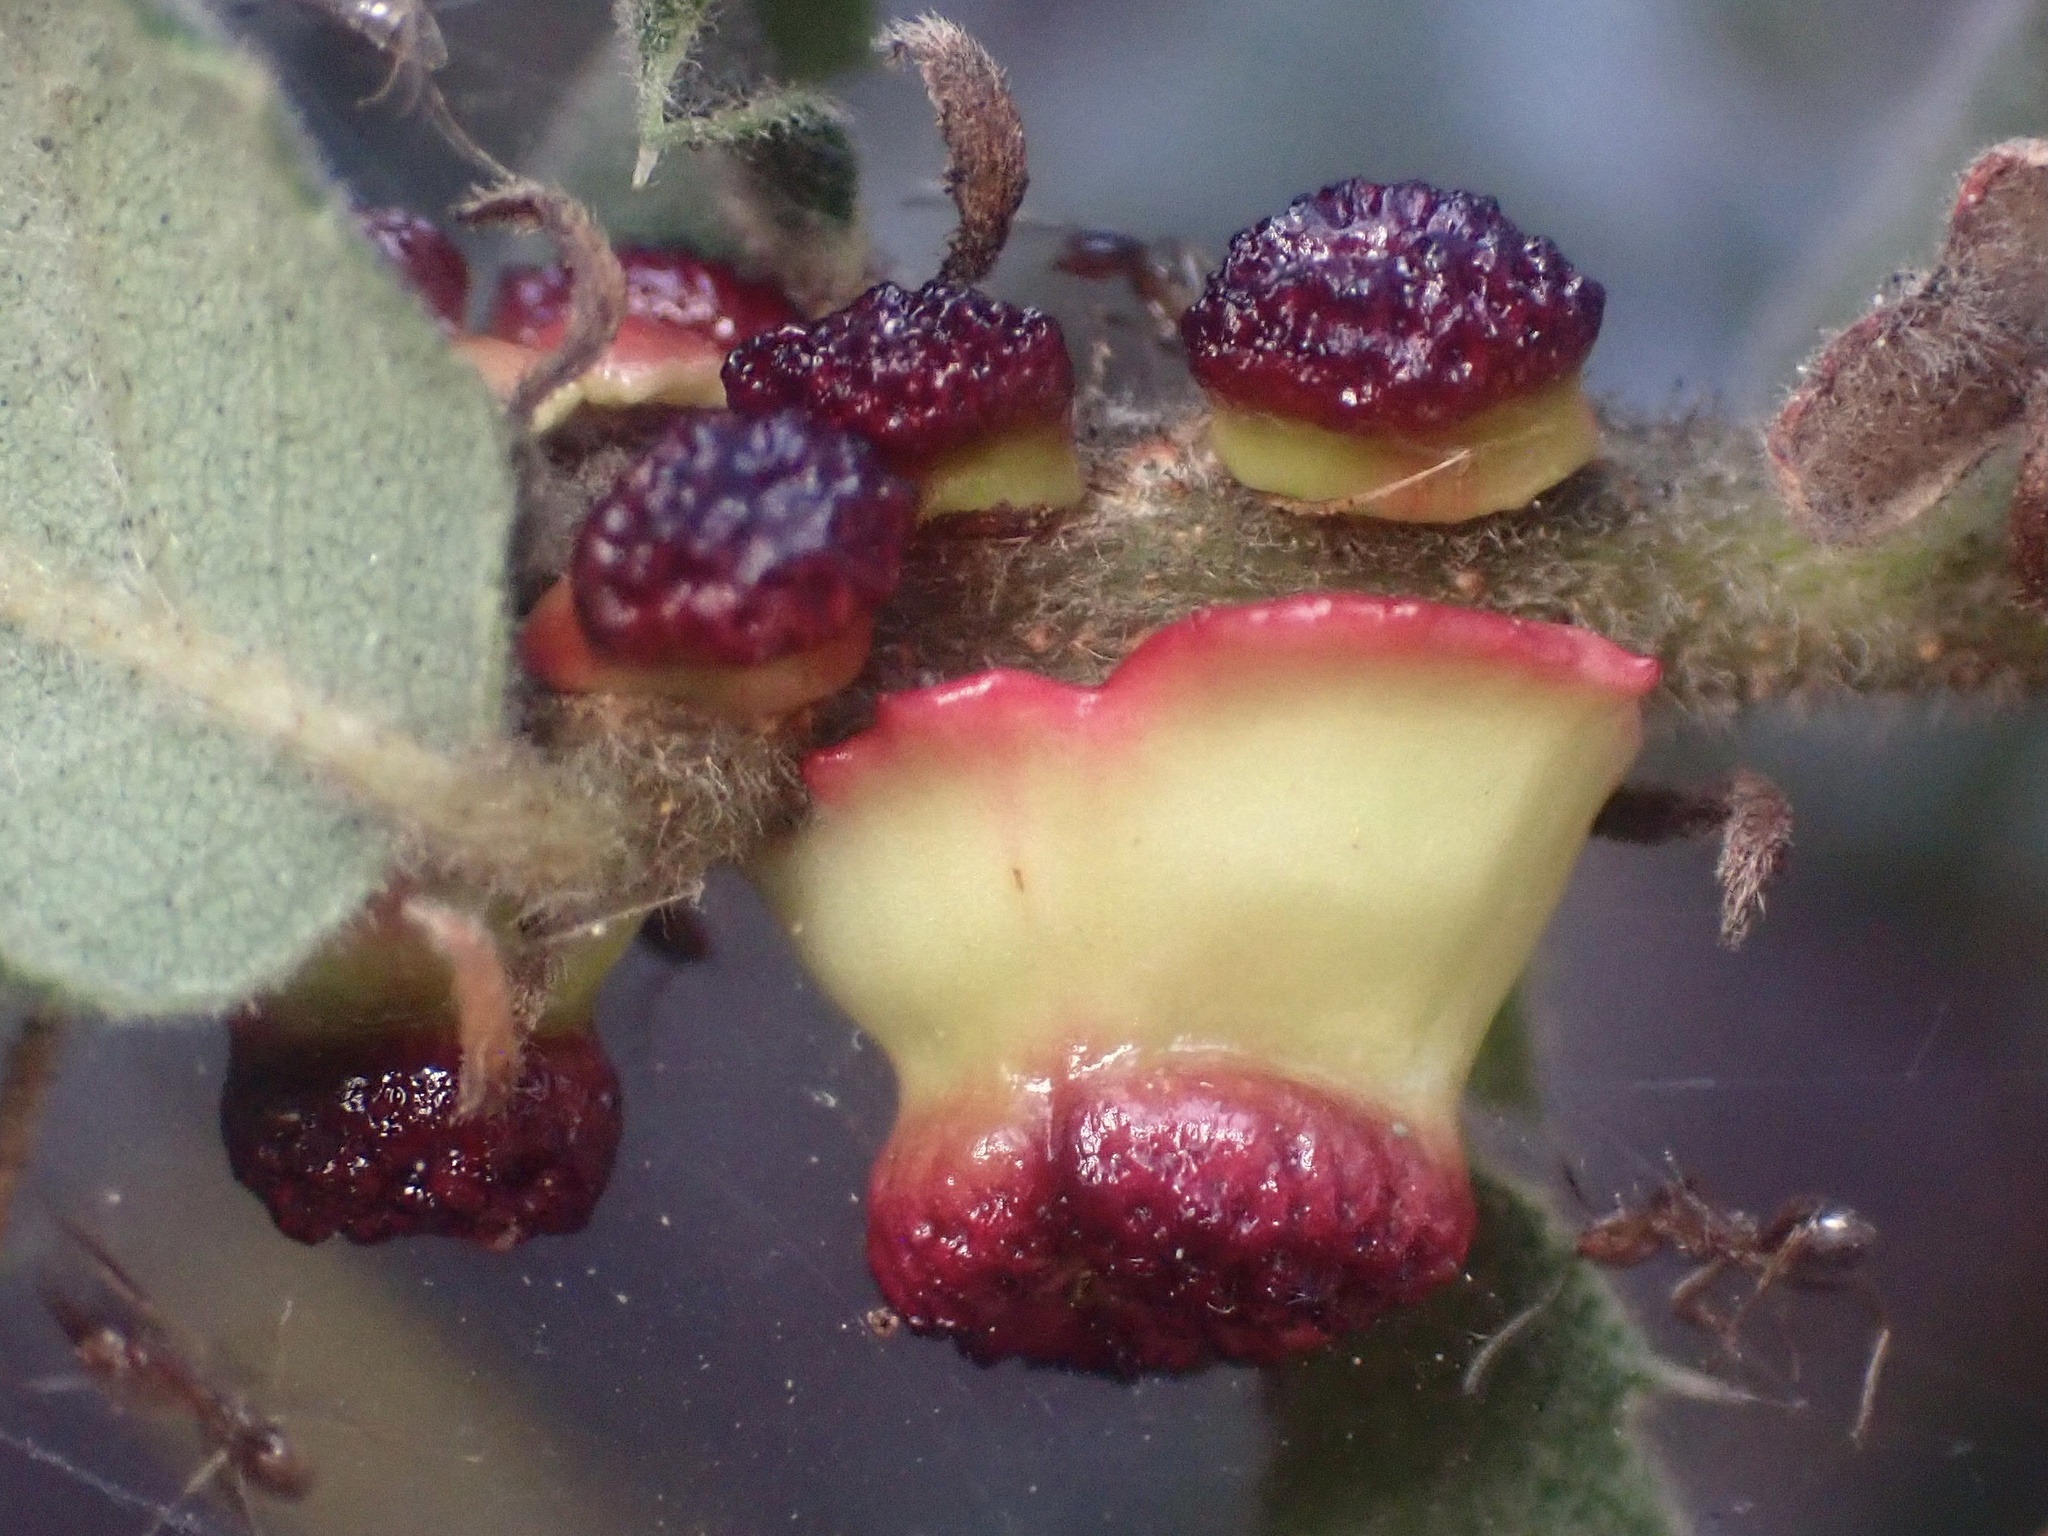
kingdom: Animalia
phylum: Arthropoda
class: Insecta
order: Hymenoptera
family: Cynipidae
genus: Disholcaspis
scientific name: Disholcaspis prehensa
